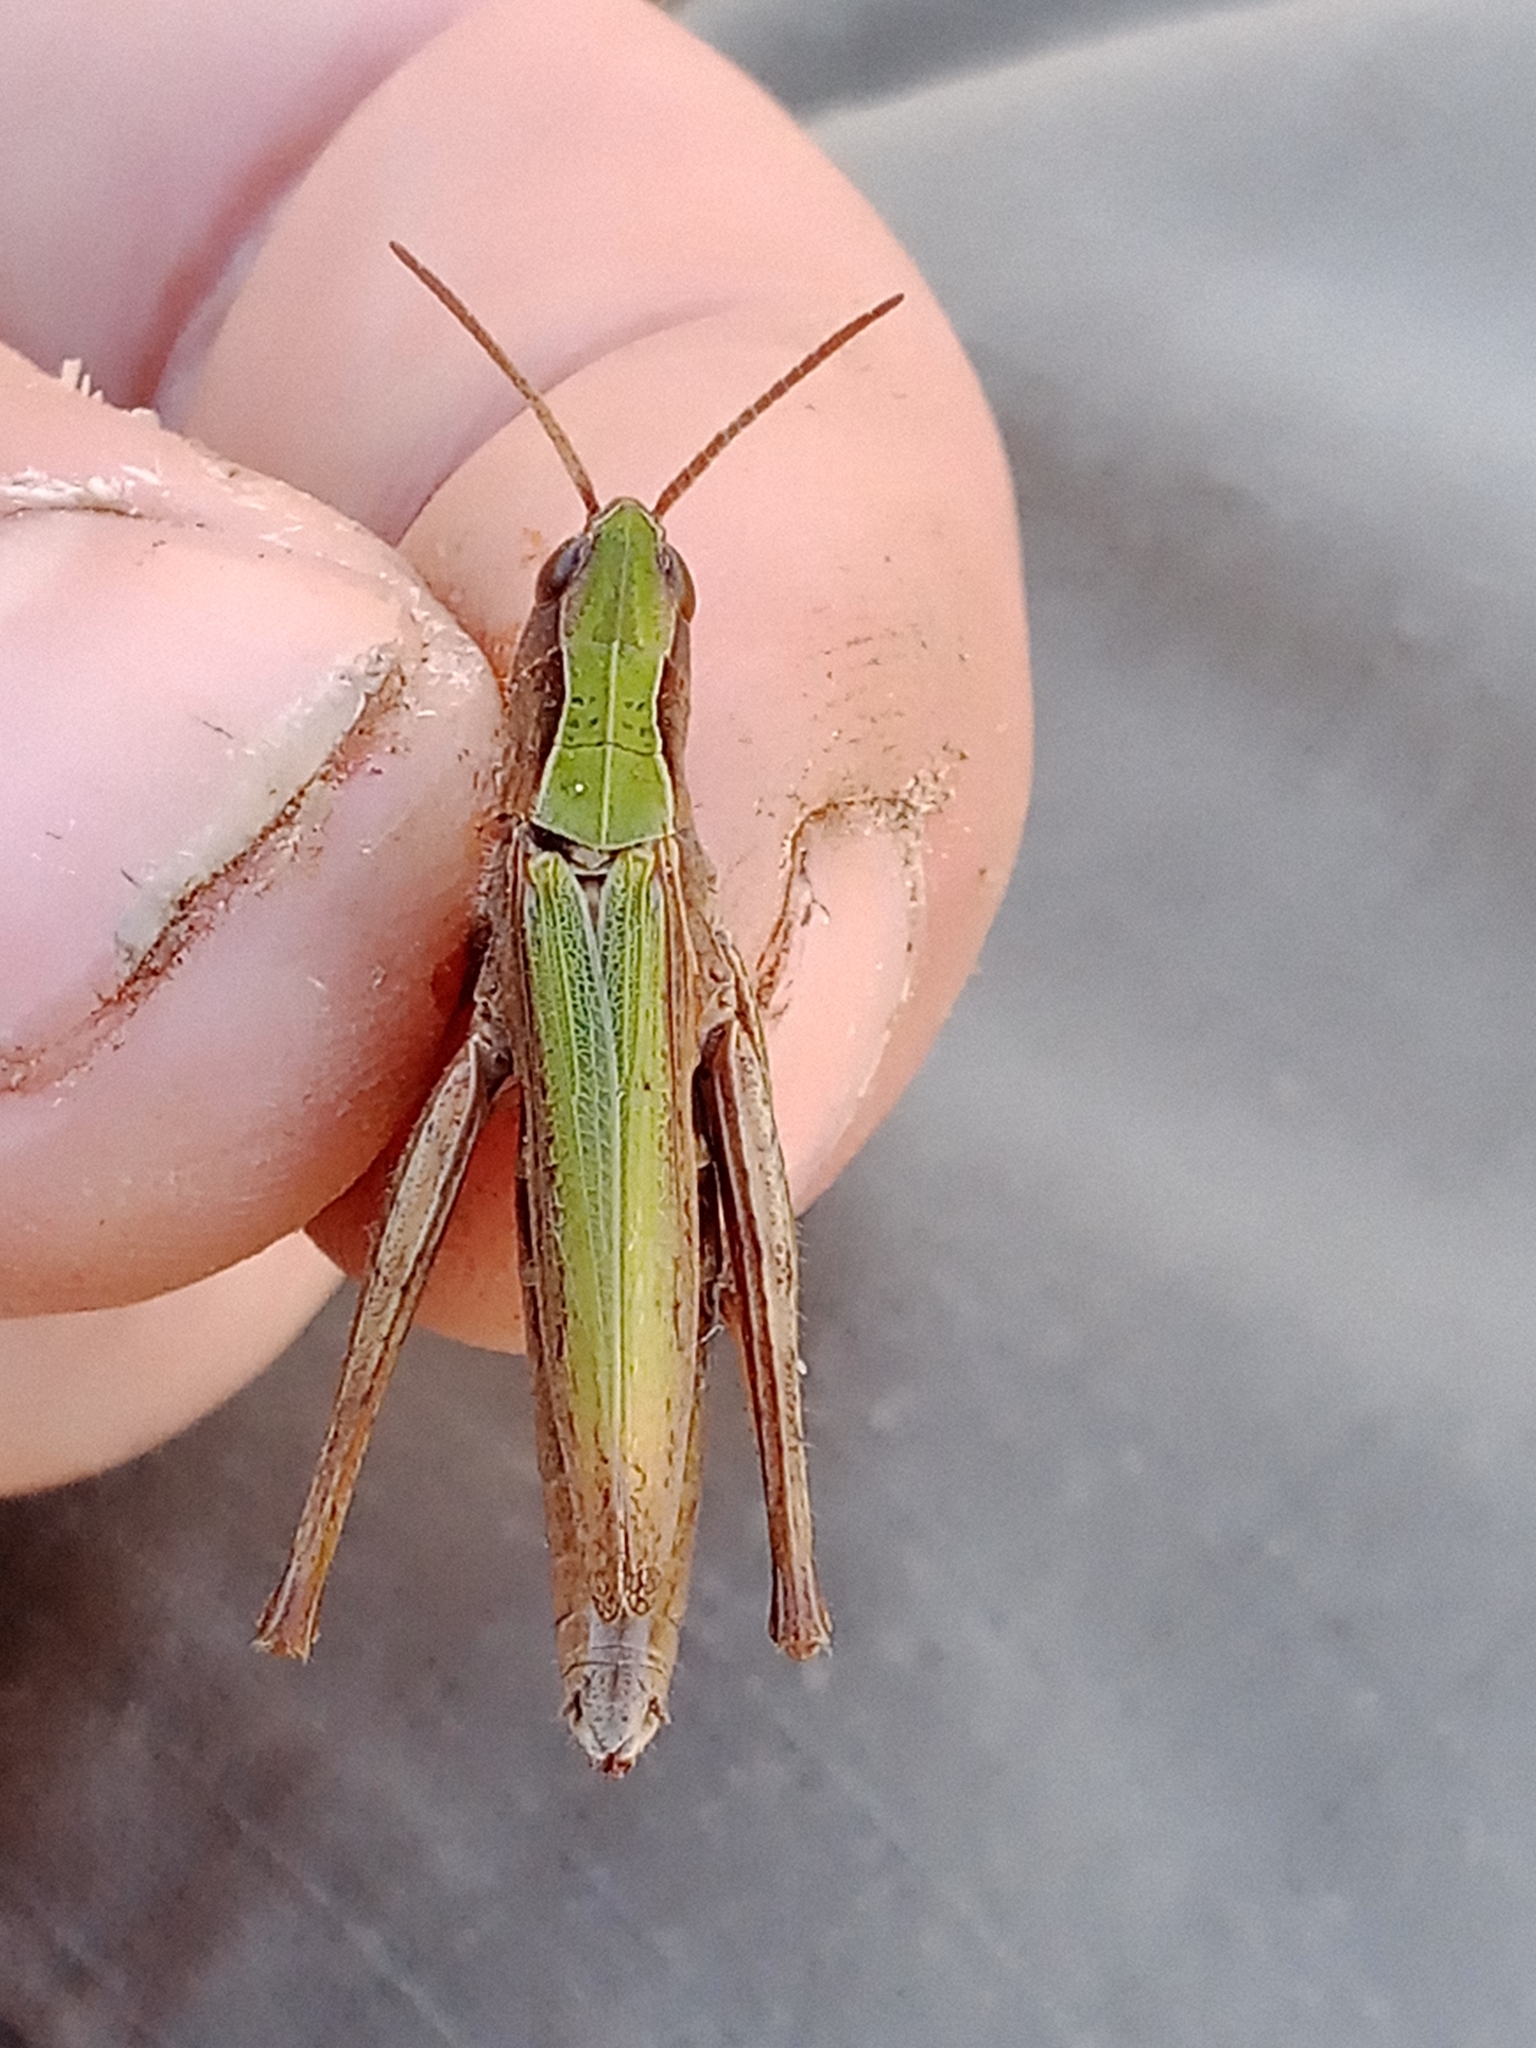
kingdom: Animalia
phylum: Arthropoda
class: Insecta
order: Orthoptera
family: Acrididae
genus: Chorthippus
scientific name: Chorthippus dorsatus
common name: Steppe grasshopper
